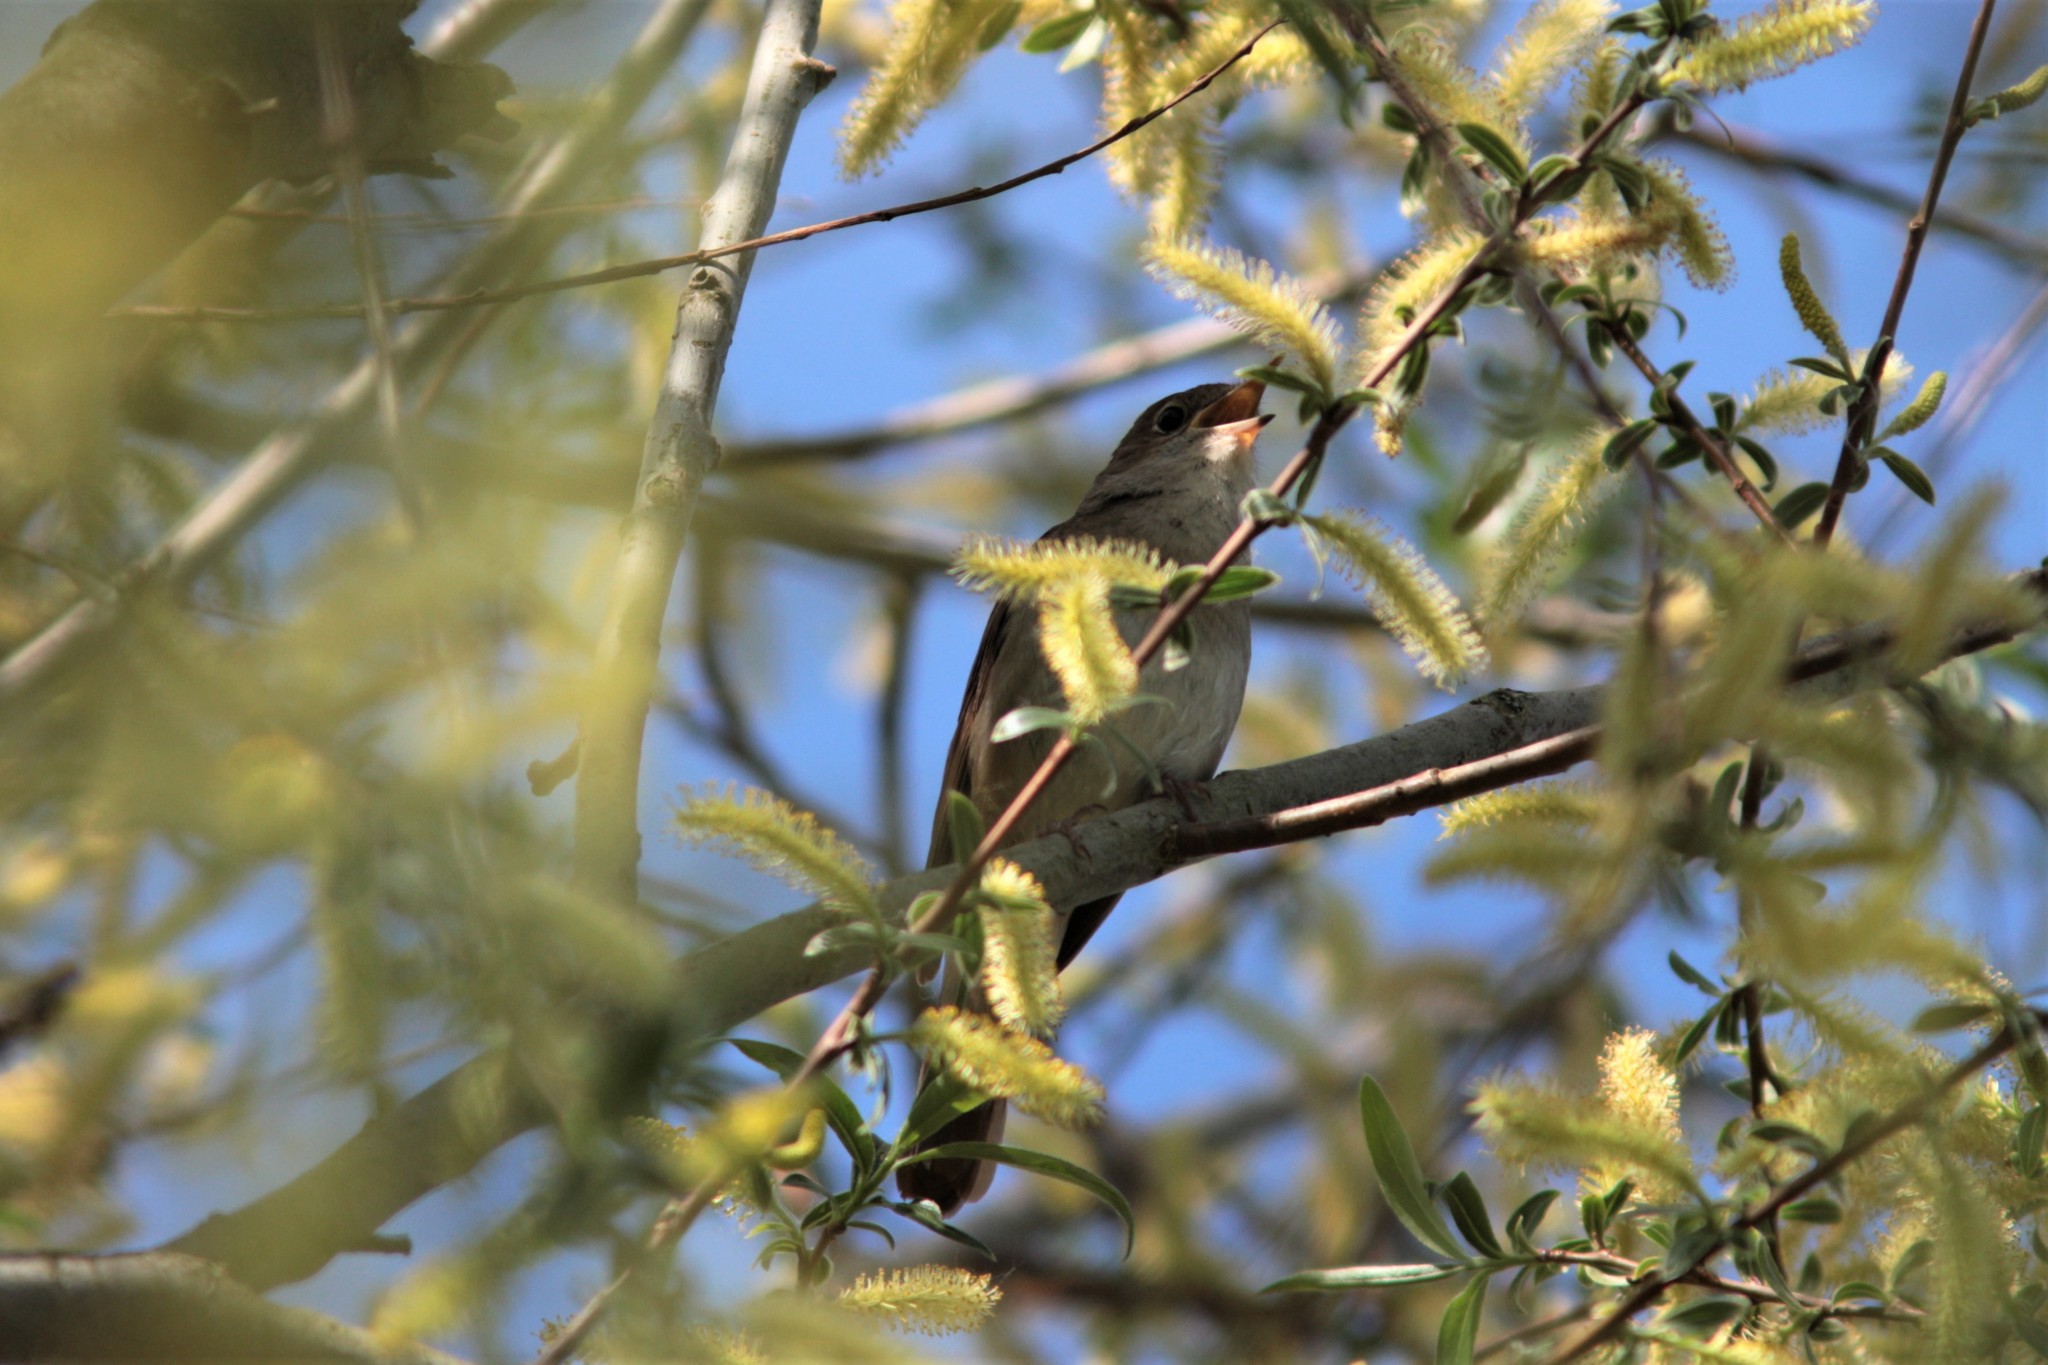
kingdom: Animalia
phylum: Chordata
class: Aves
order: Passeriformes
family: Muscicapidae
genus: Luscinia
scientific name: Luscinia megarhynchos
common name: Common nightingale
